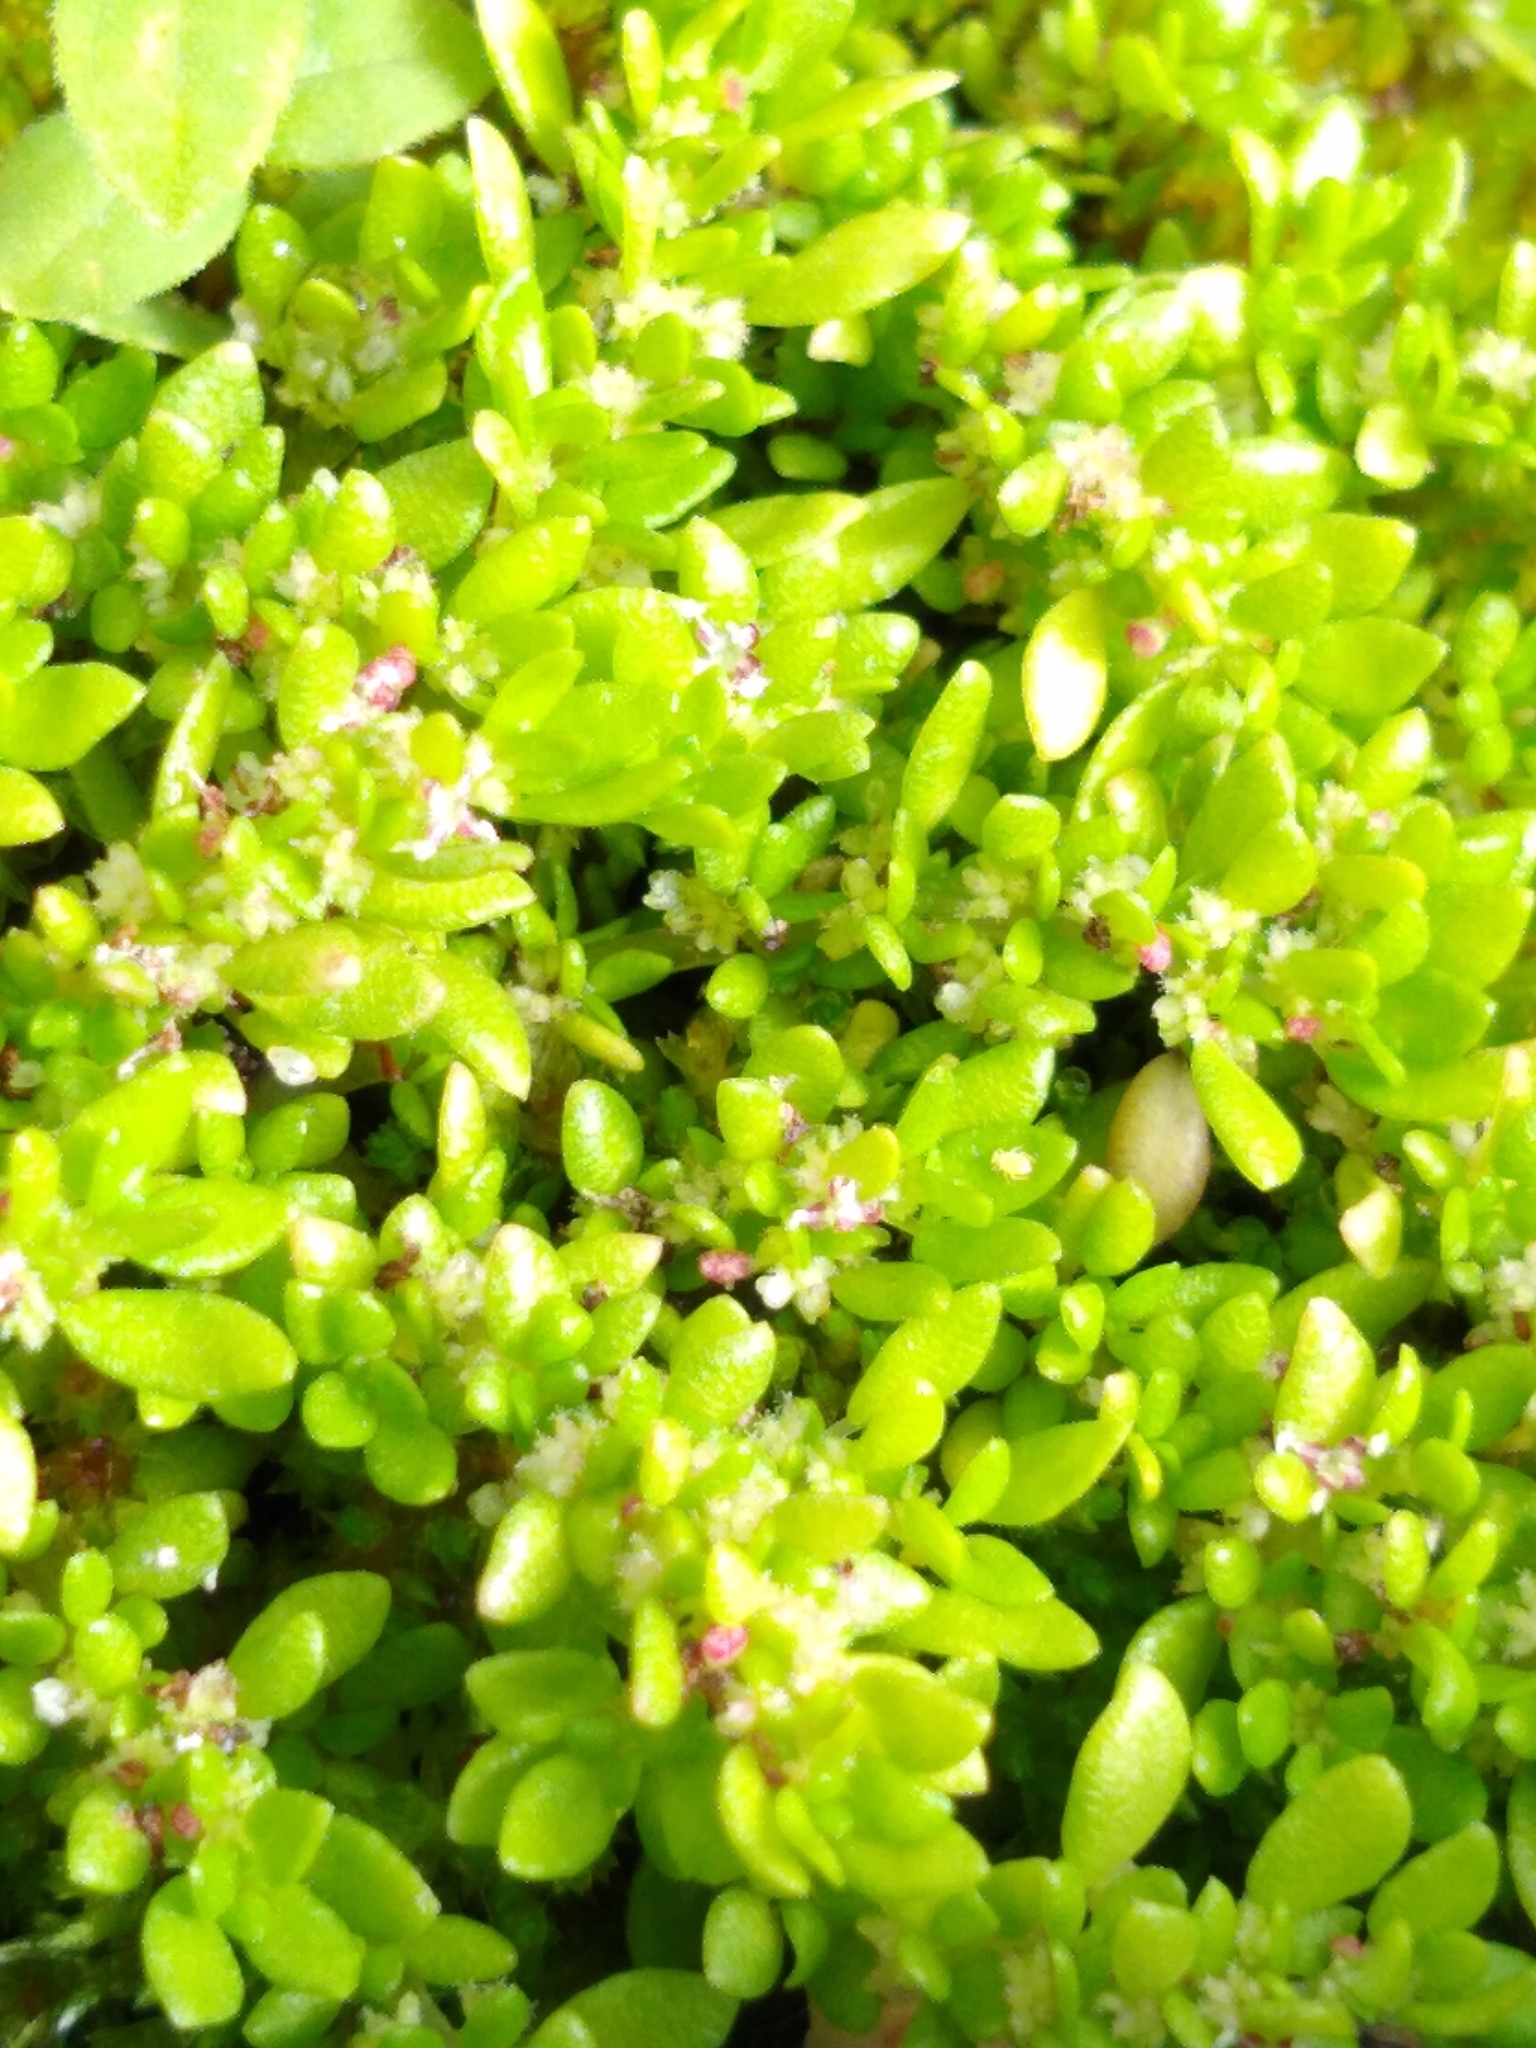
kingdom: Plantae
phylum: Tracheophyta
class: Magnoliopsida
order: Rosales
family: Urticaceae
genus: Pilea
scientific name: Pilea microphylla
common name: Artillery-plant
